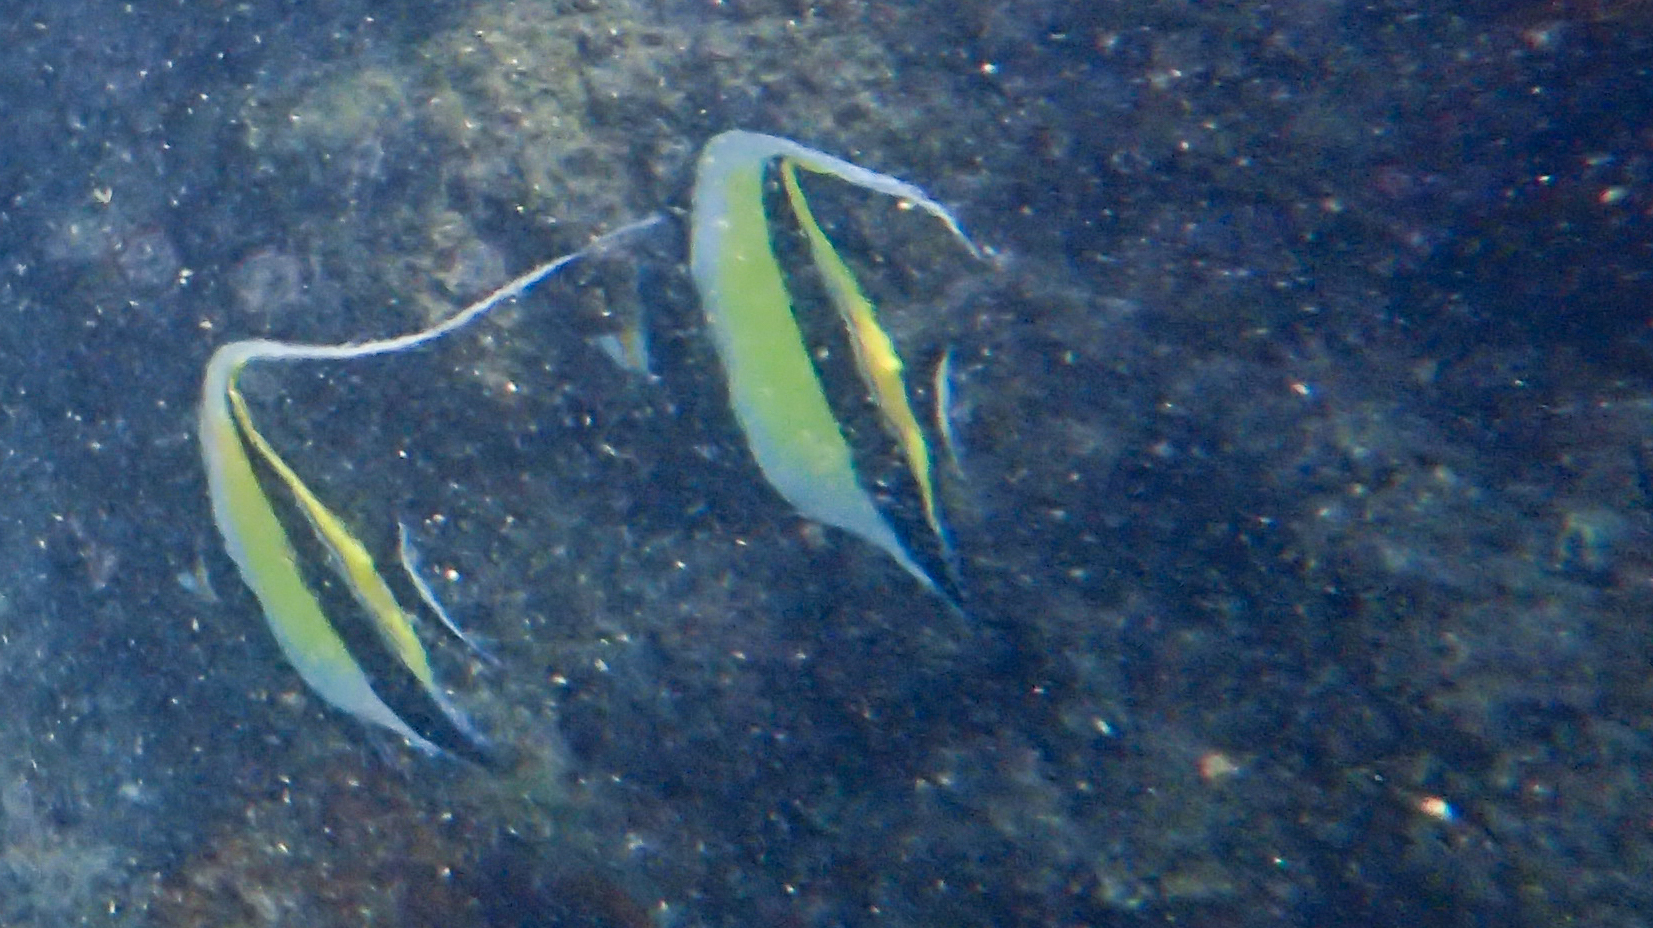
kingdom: Animalia
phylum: Chordata
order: Perciformes
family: Zanclidae
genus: Zanclus
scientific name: Zanclus cornutus
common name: Moorish idol
